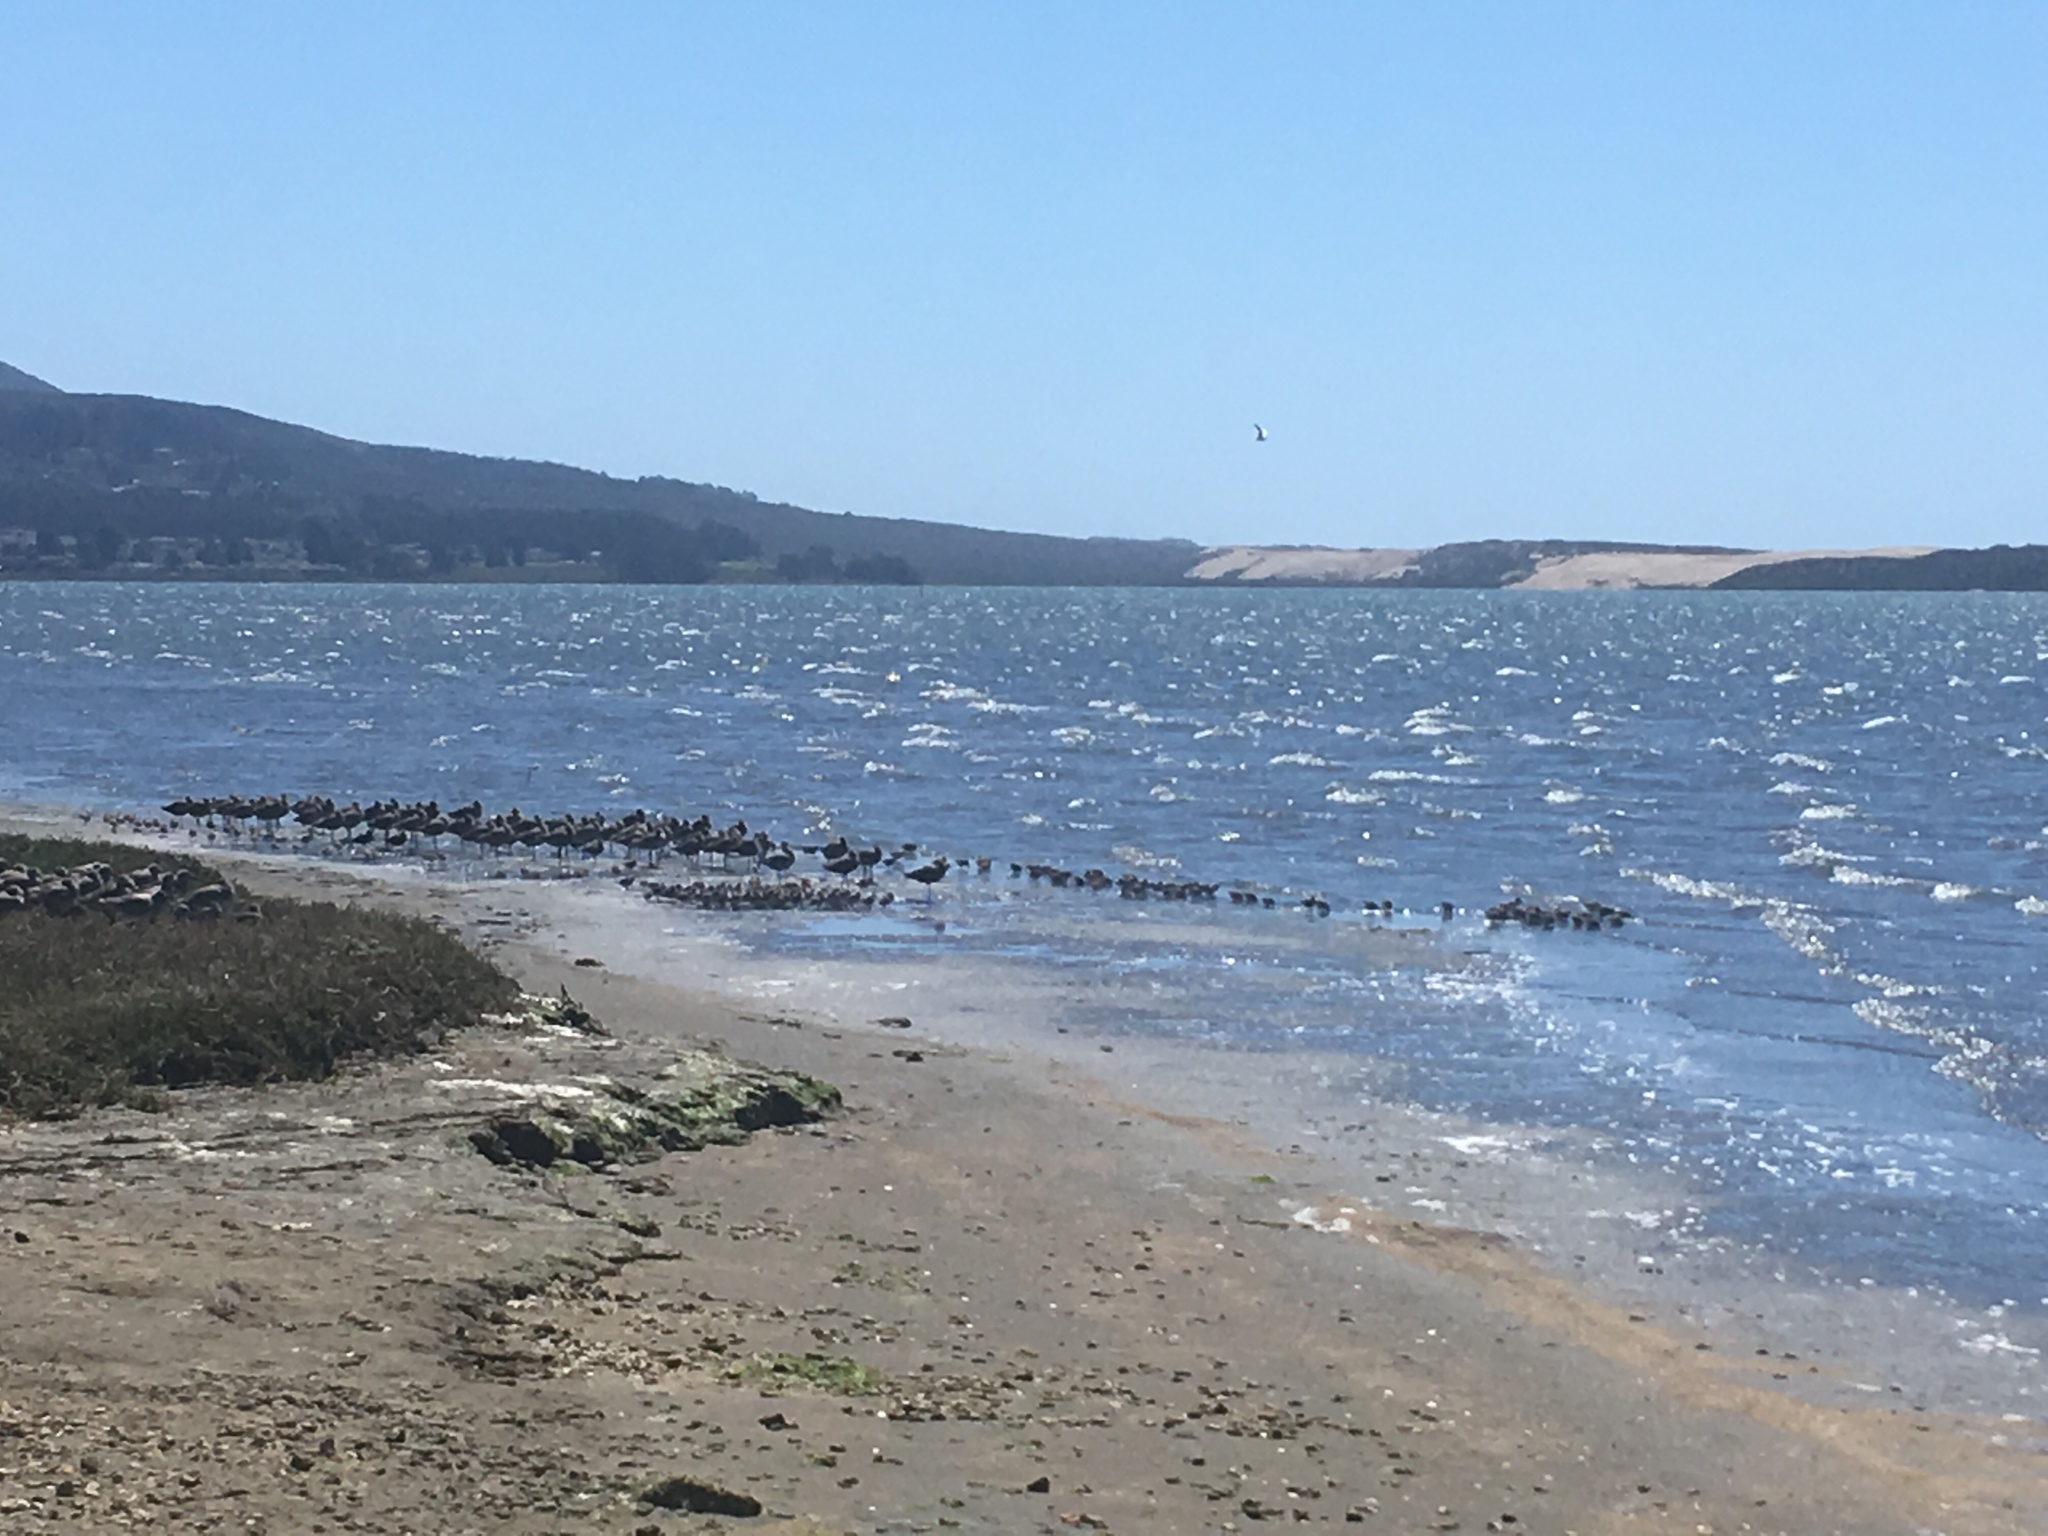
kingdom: Animalia
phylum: Chordata
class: Aves
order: Charadriiformes
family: Scolopacidae
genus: Tringa
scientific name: Tringa semipalmata
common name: Willet
